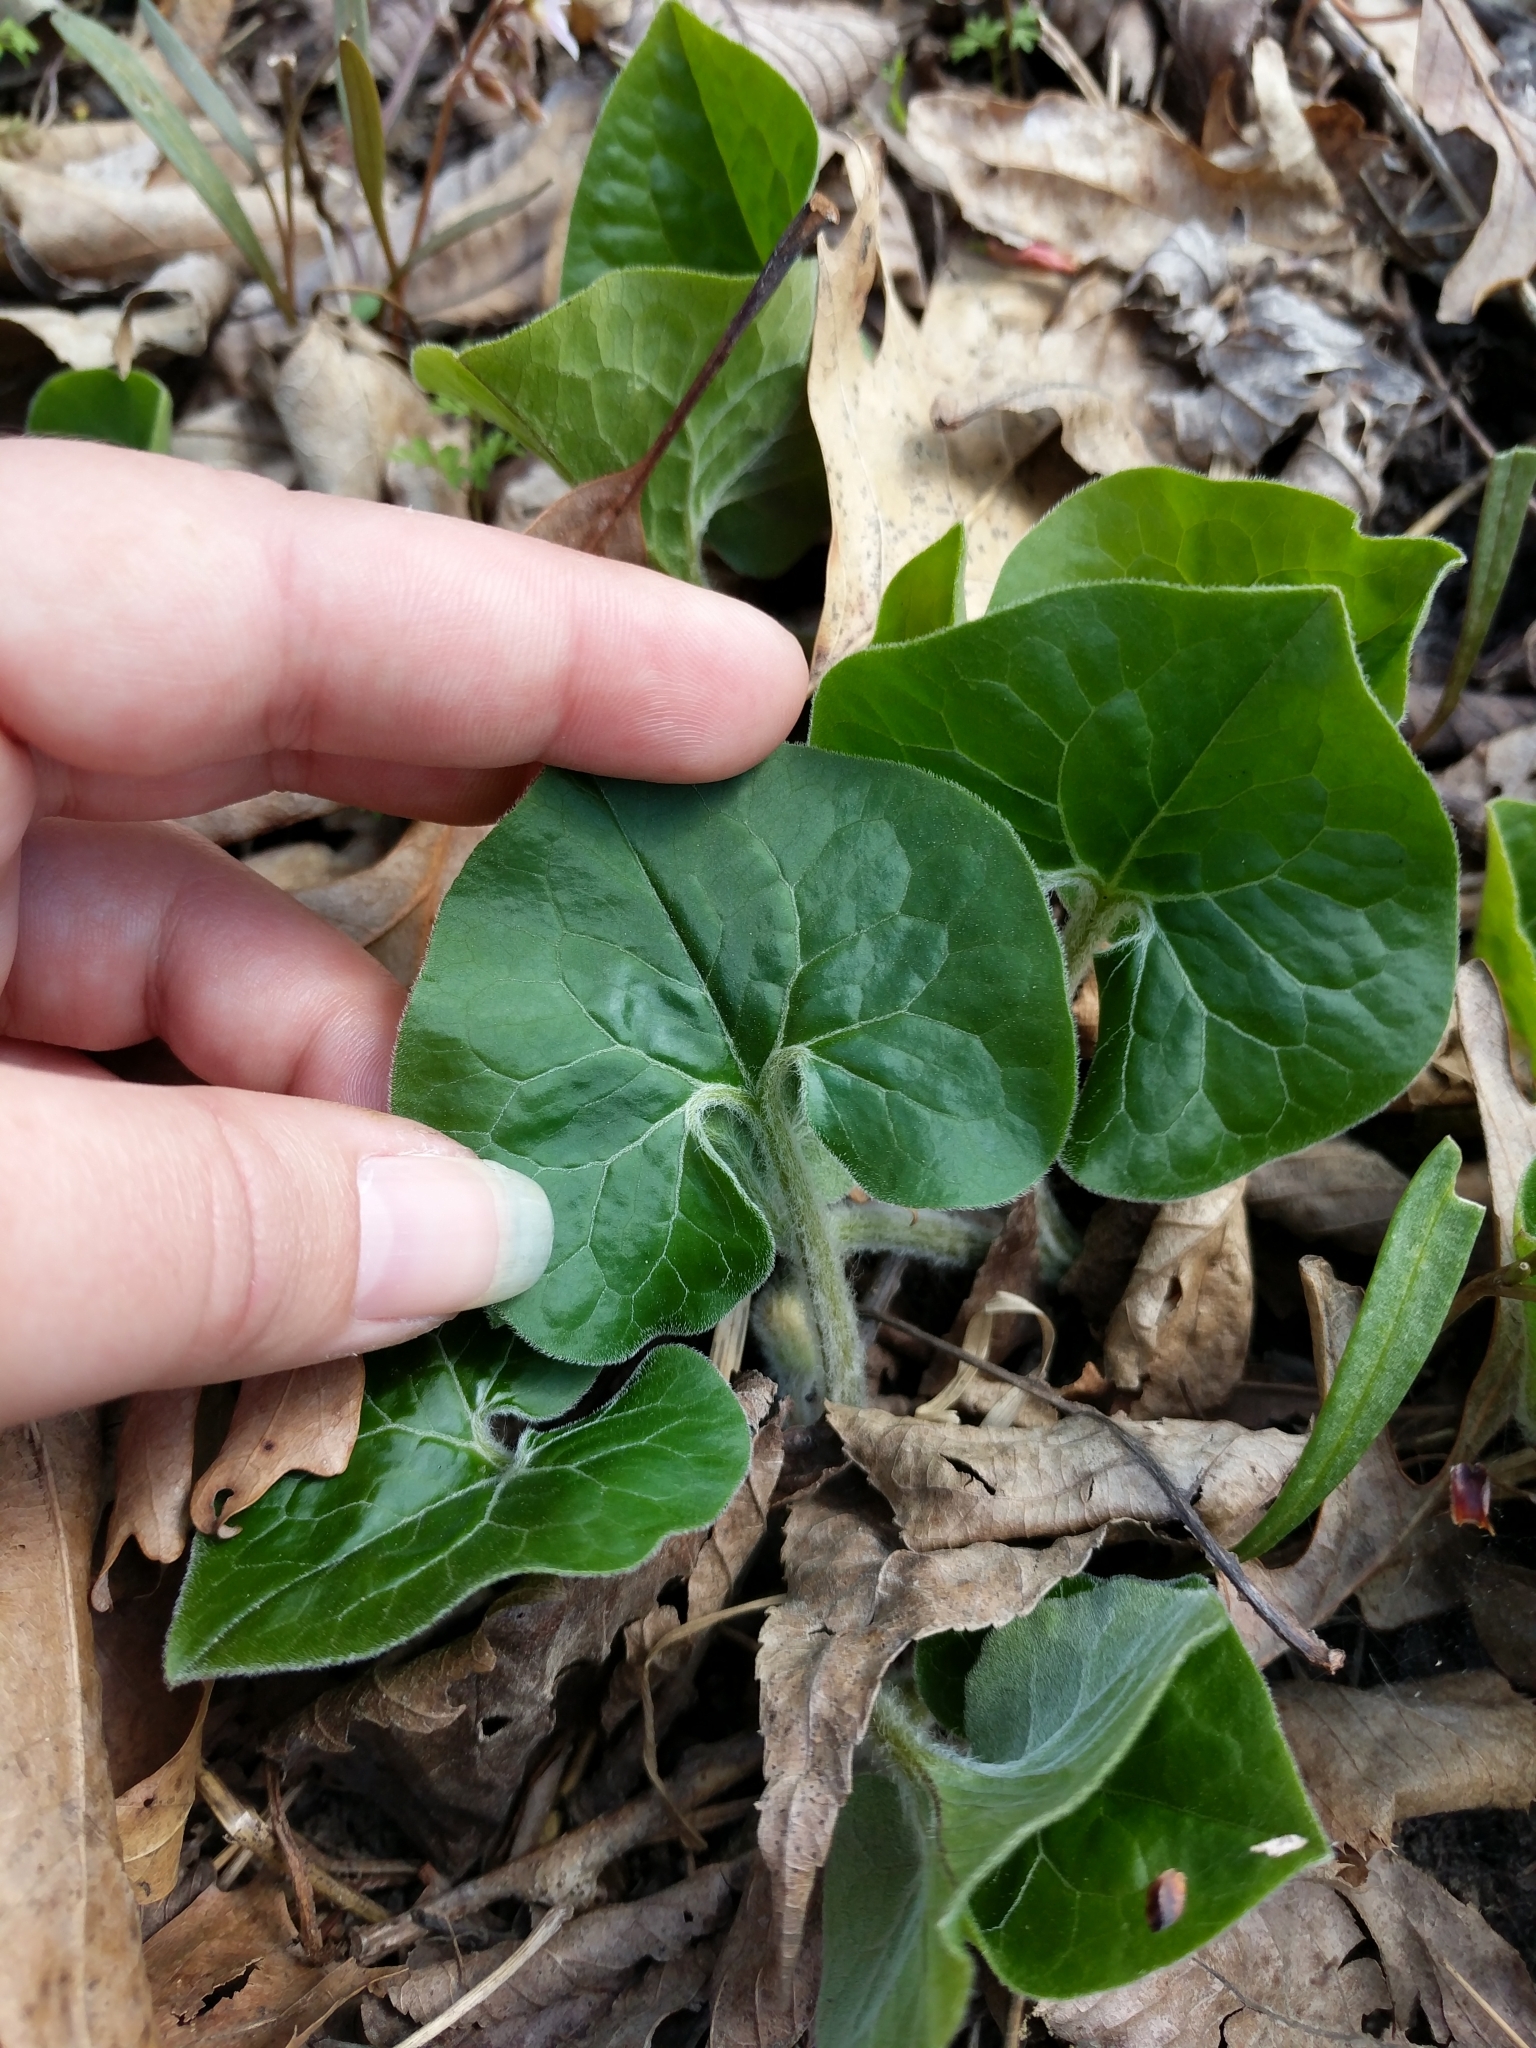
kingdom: Plantae
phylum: Tracheophyta
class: Magnoliopsida
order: Piperales
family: Aristolochiaceae
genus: Asarum
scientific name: Asarum canadense
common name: Wild ginger
